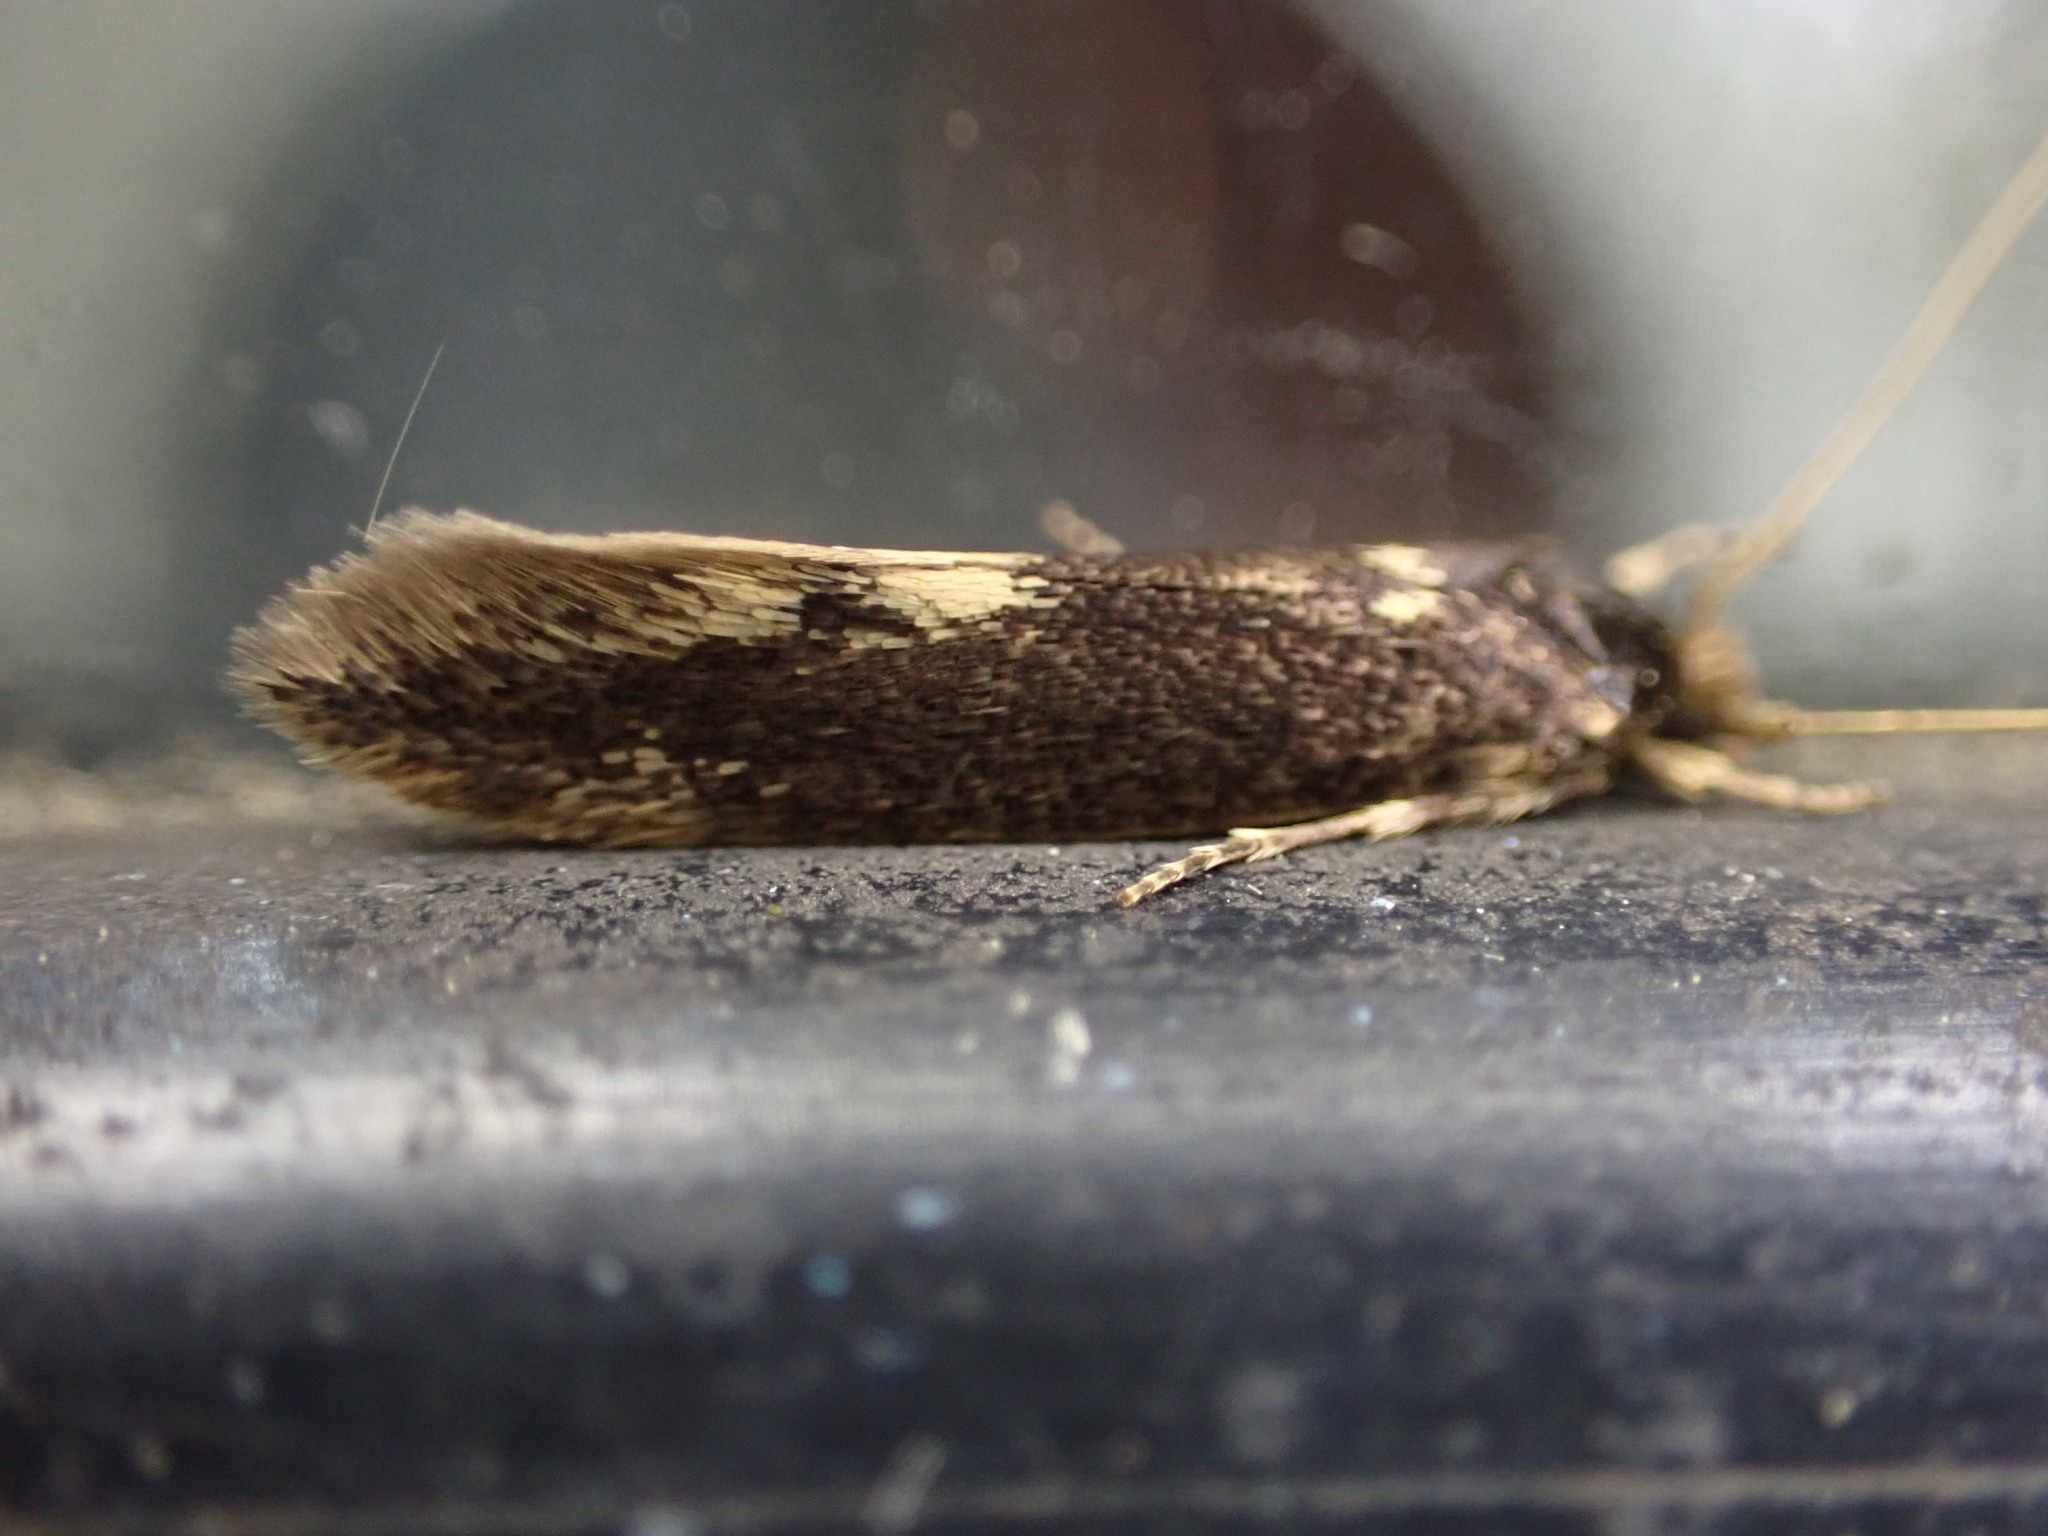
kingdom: Animalia
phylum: Arthropoda
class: Insecta
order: Lepidoptera
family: Tineidae
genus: Opogona
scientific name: Opogona omoscopa
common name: Moth
